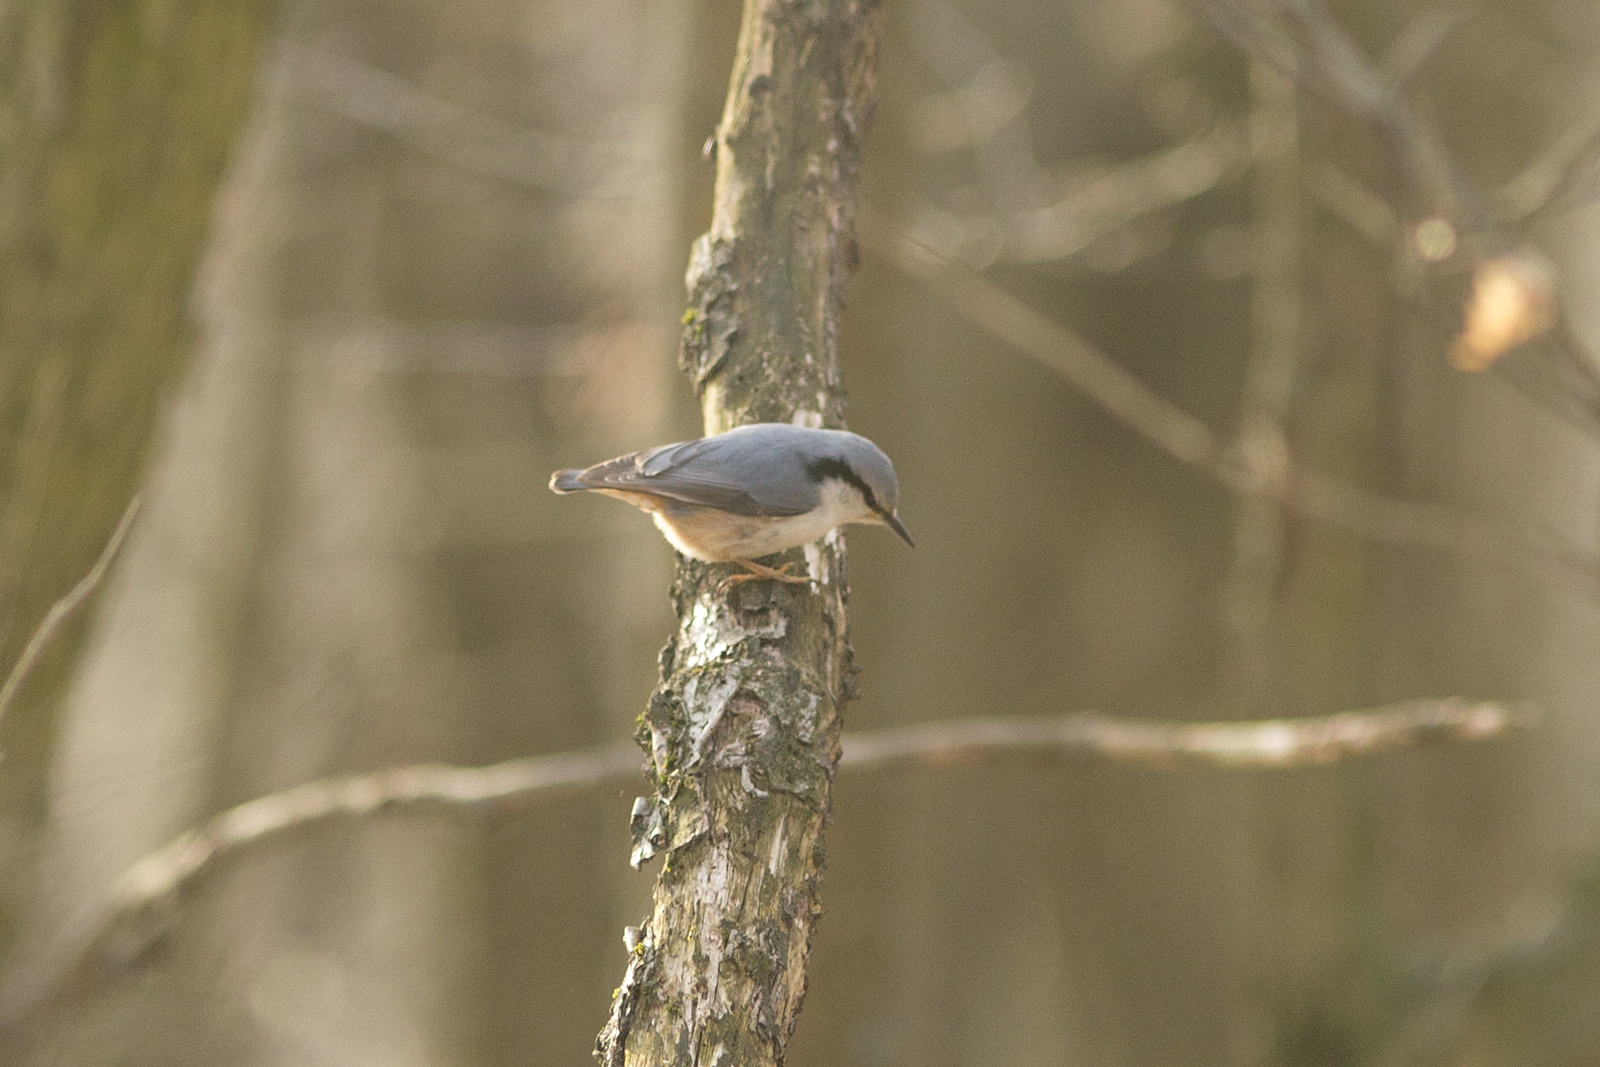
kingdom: Animalia
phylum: Chordata
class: Aves
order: Passeriformes
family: Sittidae
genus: Sitta
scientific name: Sitta europaea
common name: Eurasian nuthatch
